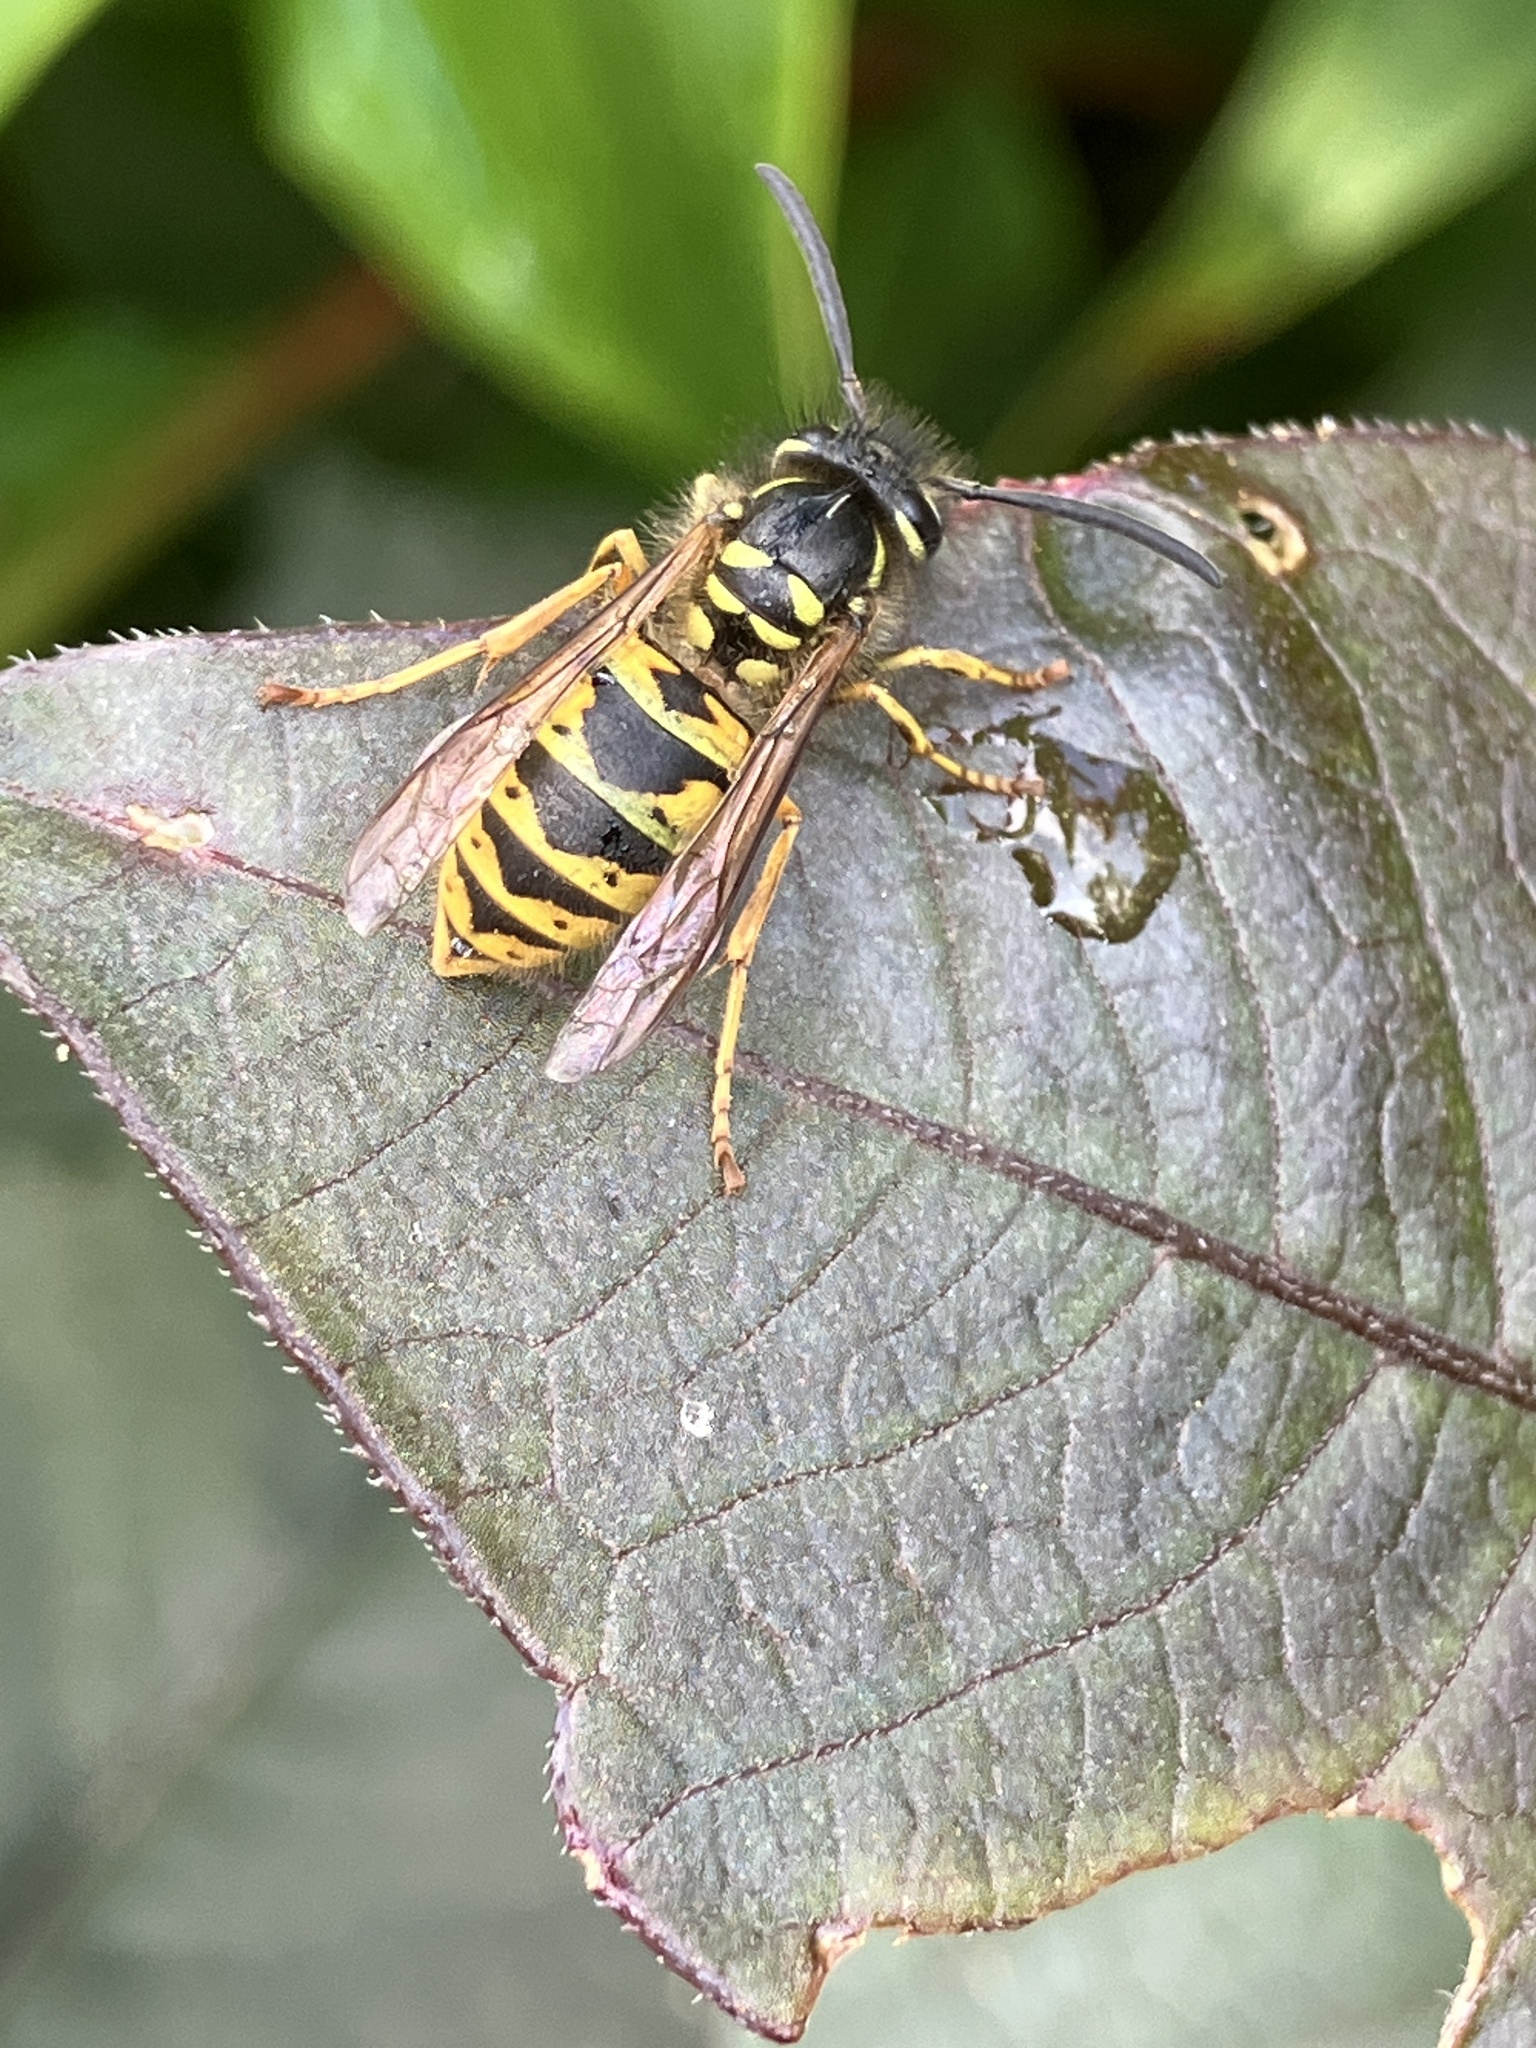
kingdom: Animalia
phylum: Arthropoda
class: Insecta
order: Hymenoptera
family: Vespidae
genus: Vespula
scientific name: Vespula vulgaris
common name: Common wasp
